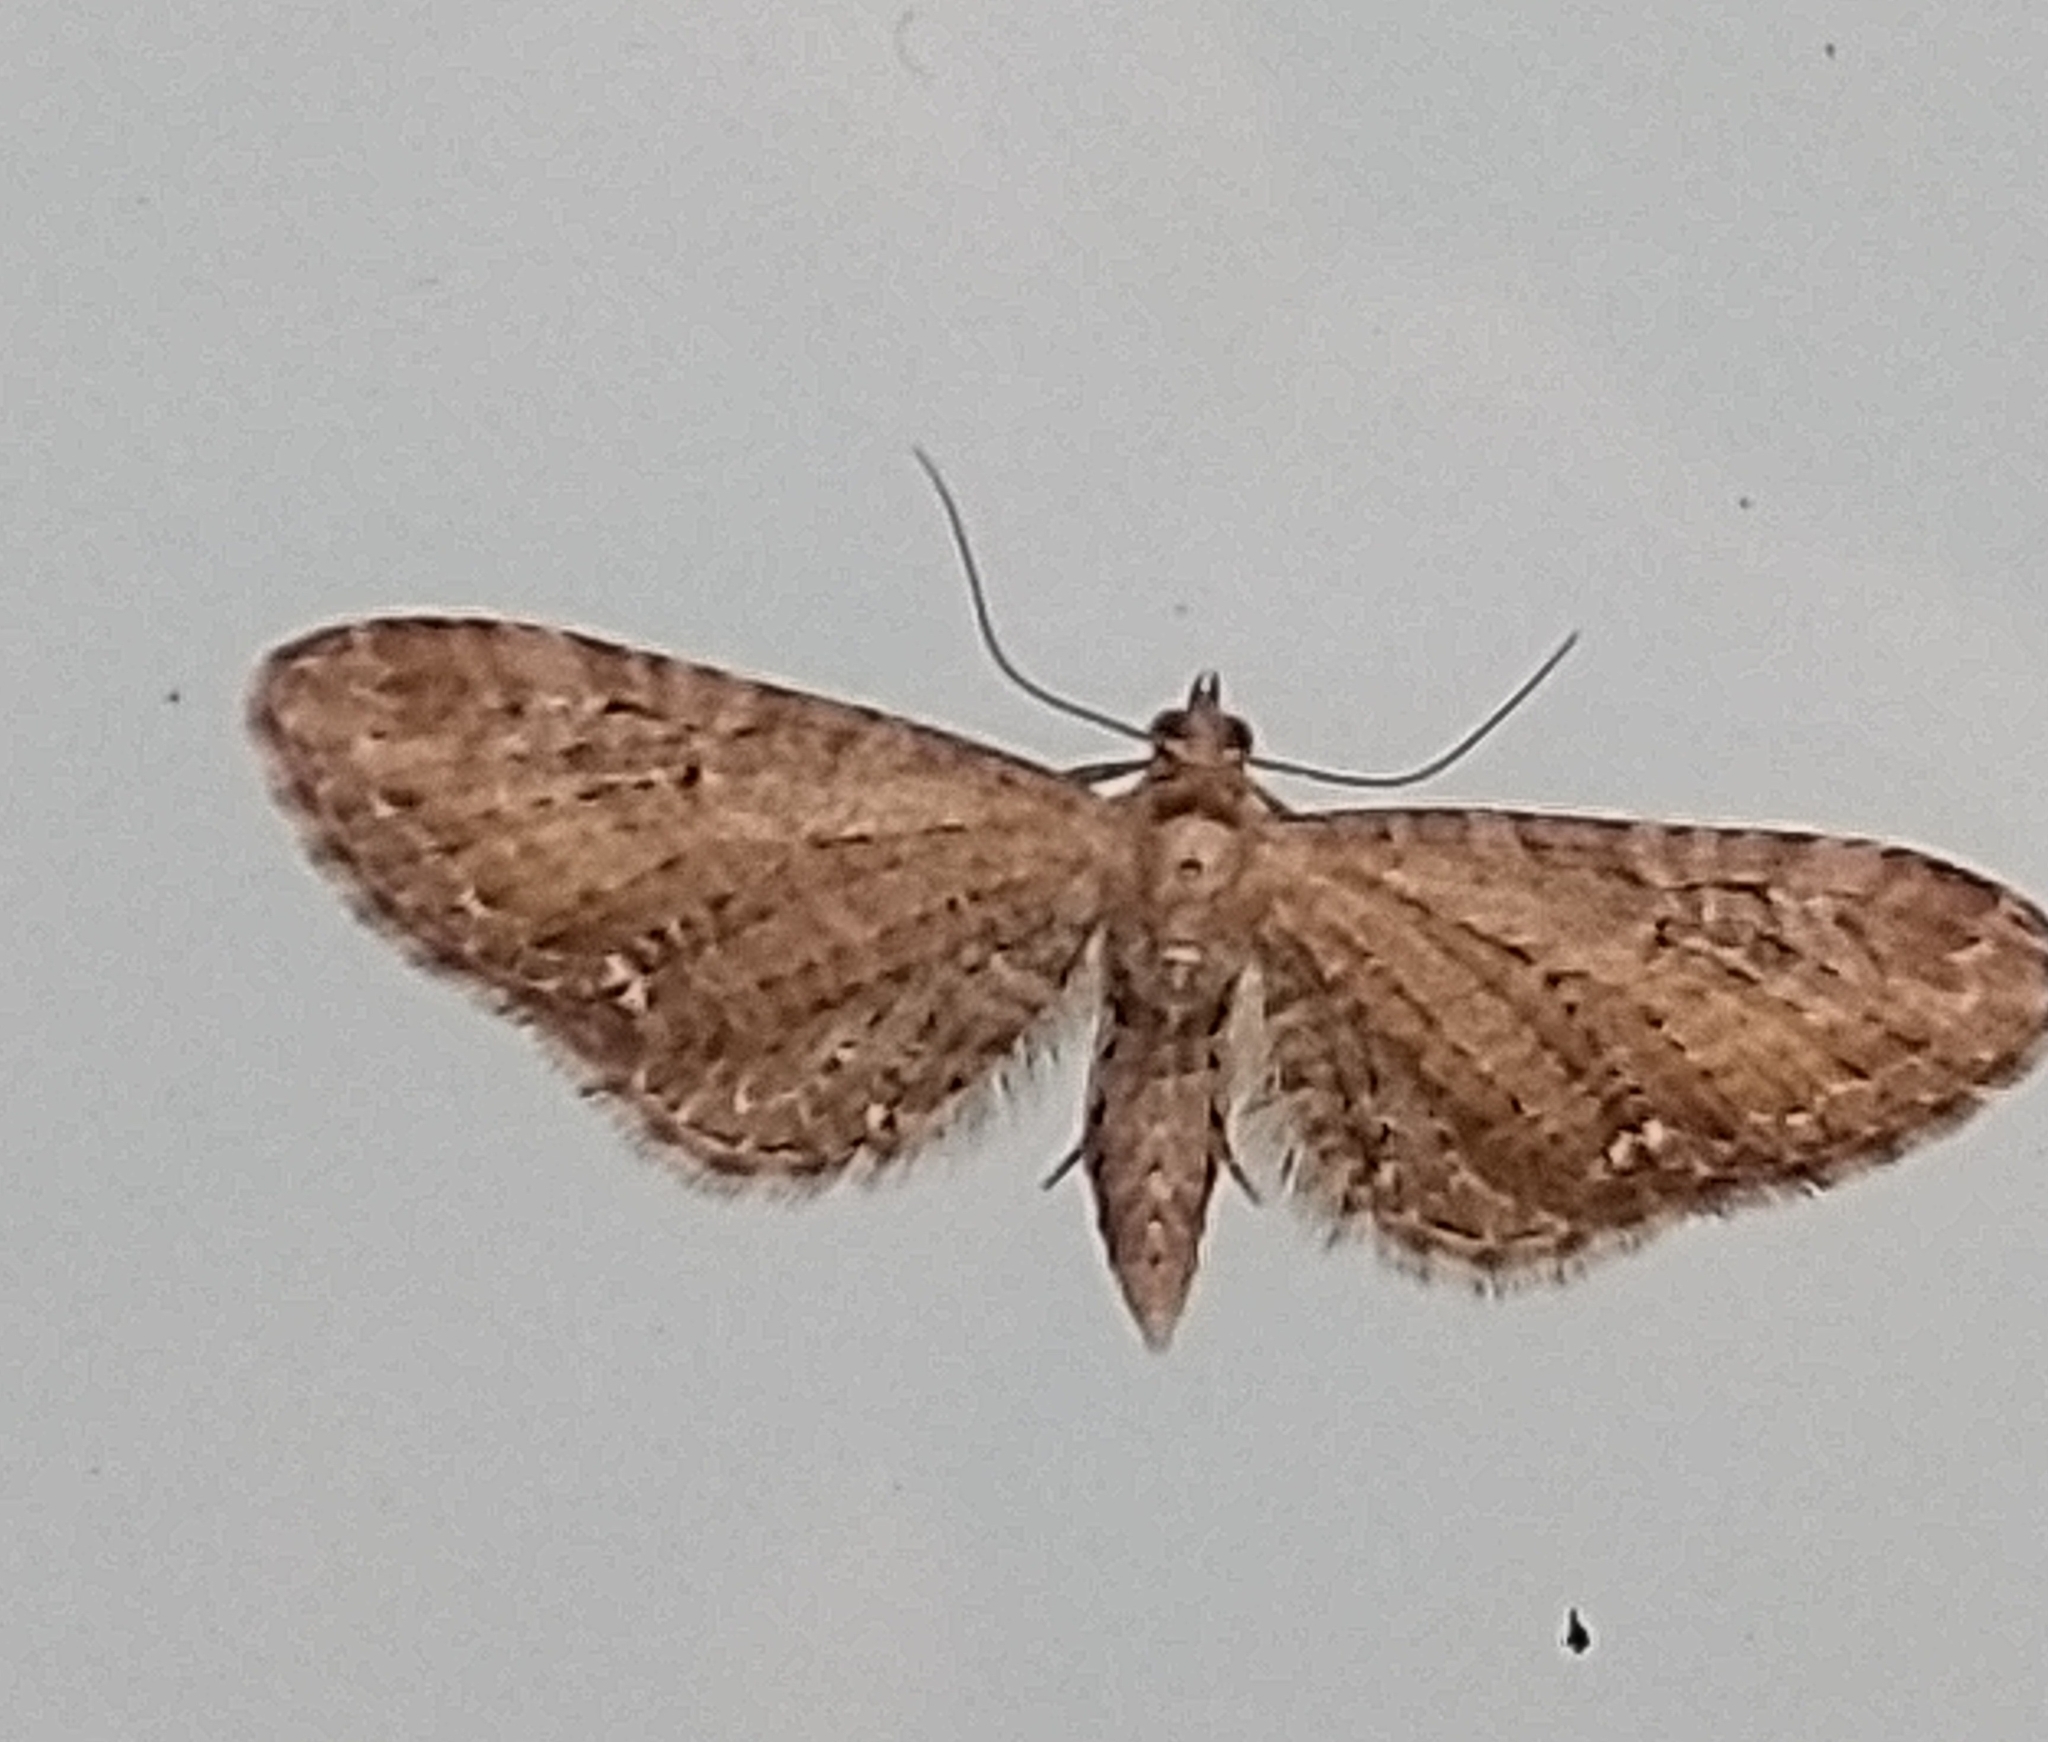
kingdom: Animalia
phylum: Arthropoda
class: Insecta
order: Lepidoptera
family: Geometridae
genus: Eupithecia
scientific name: Eupithecia vulgata
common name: Common pug
